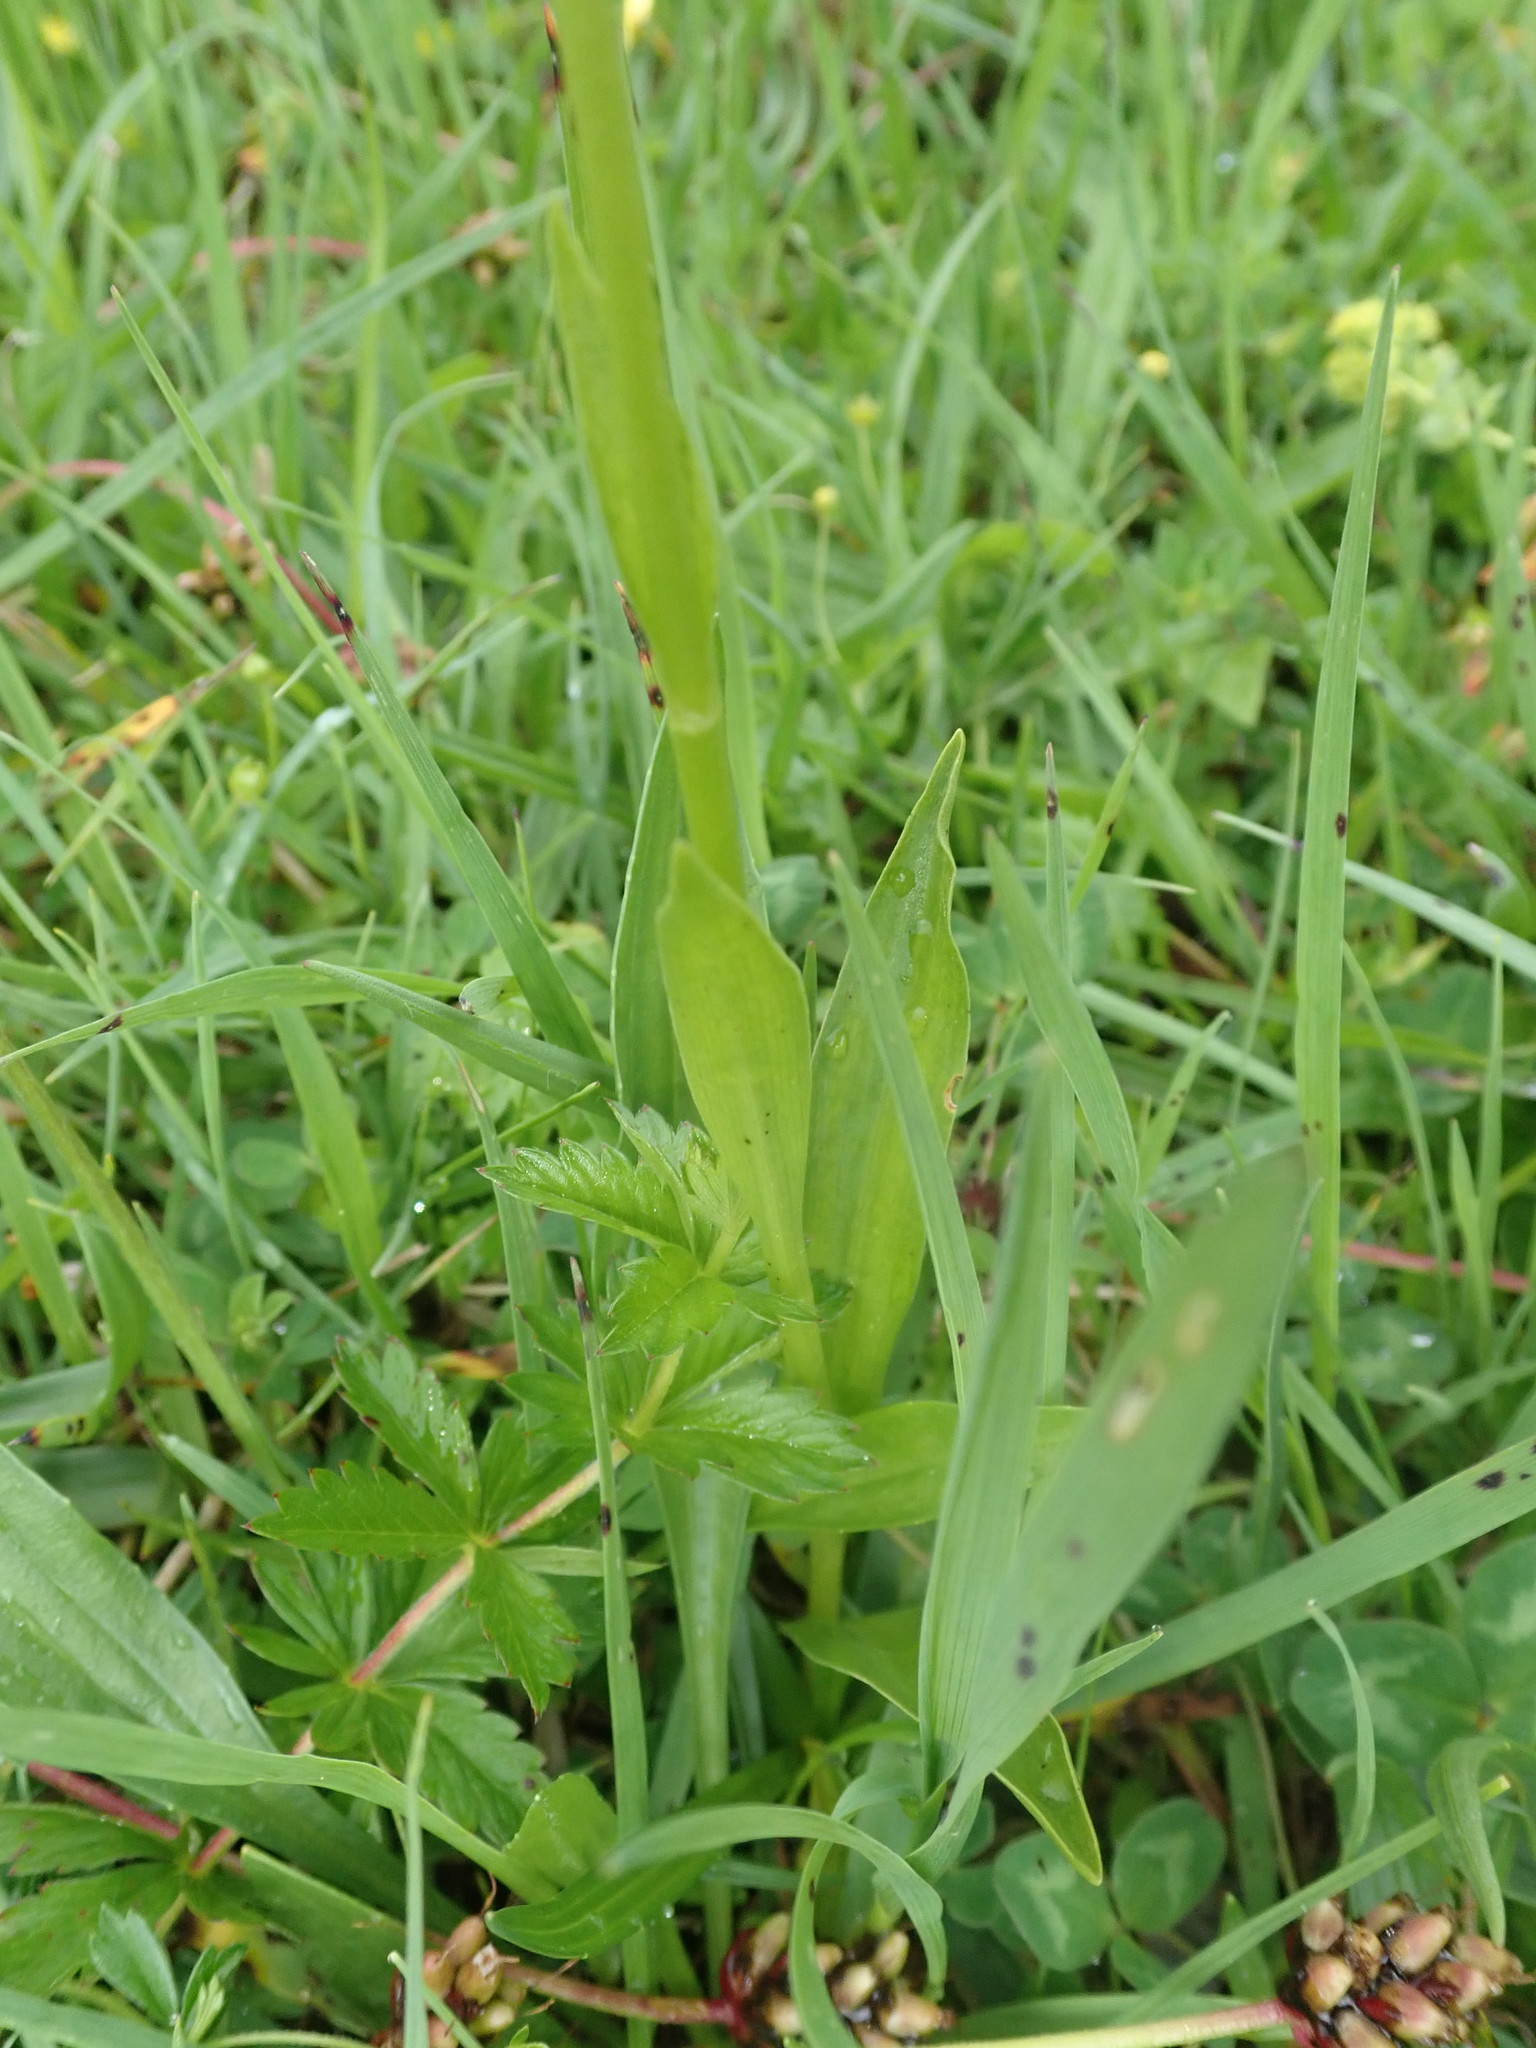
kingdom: Plantae
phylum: Tracheophyta
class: Liliopsida
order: Asparagales
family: Orchidaceae
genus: Pseudorchis
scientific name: Pseudorchis albida
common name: Small-white orchid
